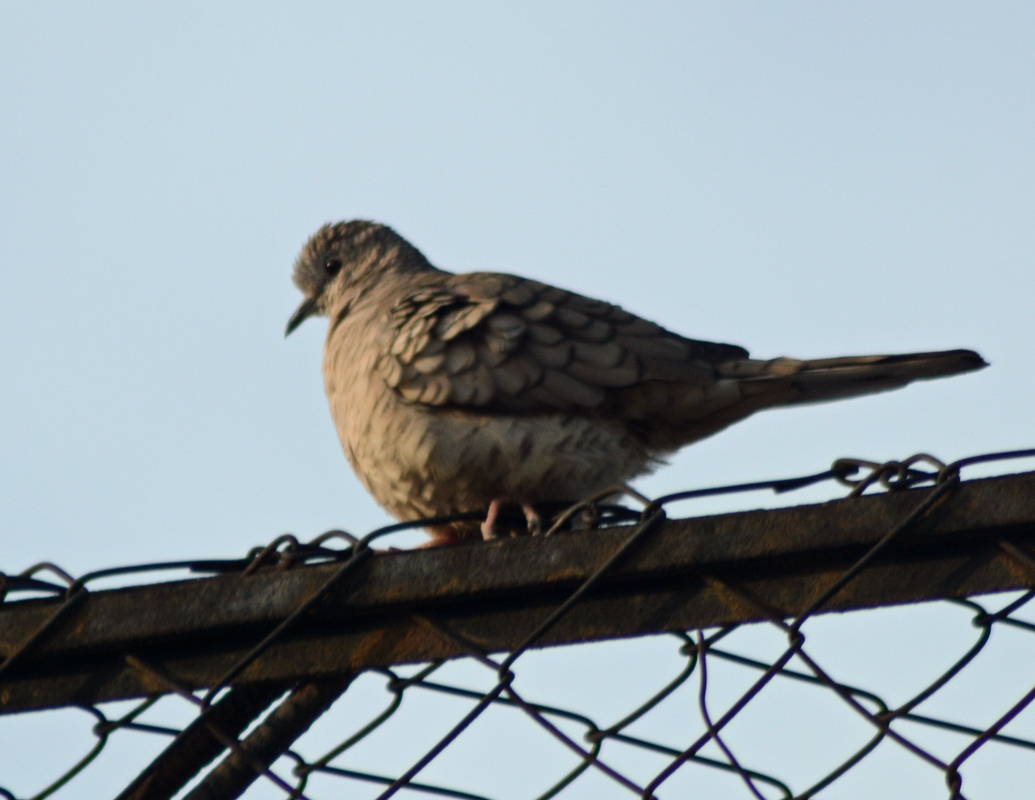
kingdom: Animalia
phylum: Chordata
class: Aves
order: Columbiformes
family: Columbidae
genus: Columbina
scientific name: Columbina inca
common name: Inca dove
